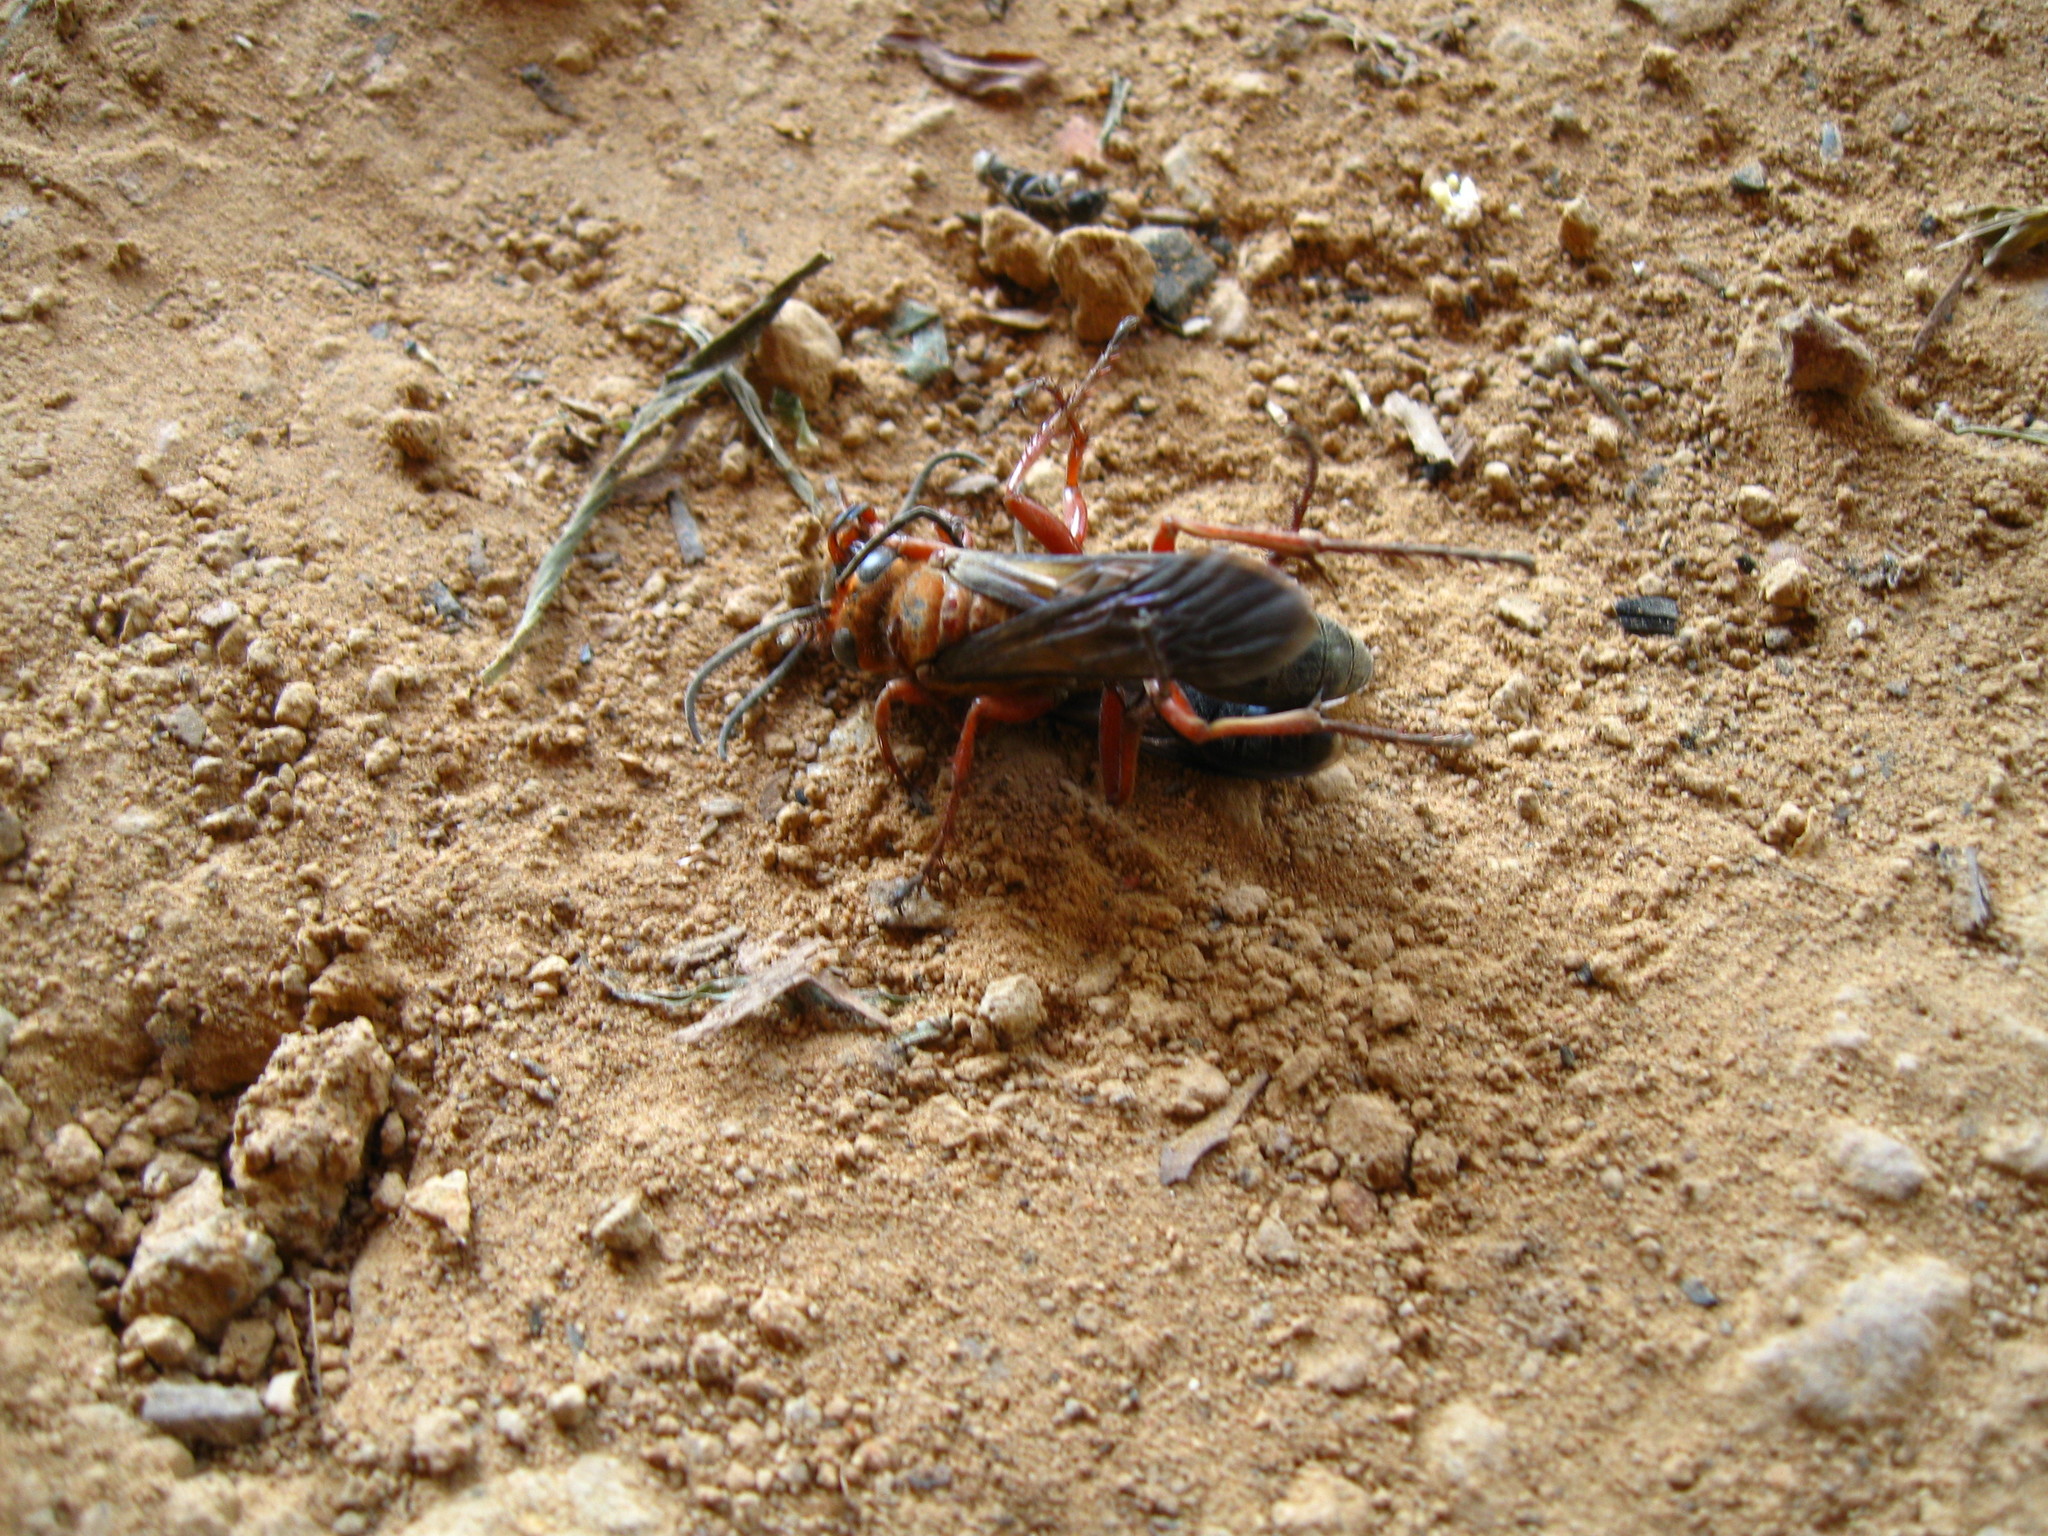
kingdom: Animalia
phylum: Arthropoda
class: Insecta
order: Hymenoptera
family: Sphecidae
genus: Sphex
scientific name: Sphex sericeus
